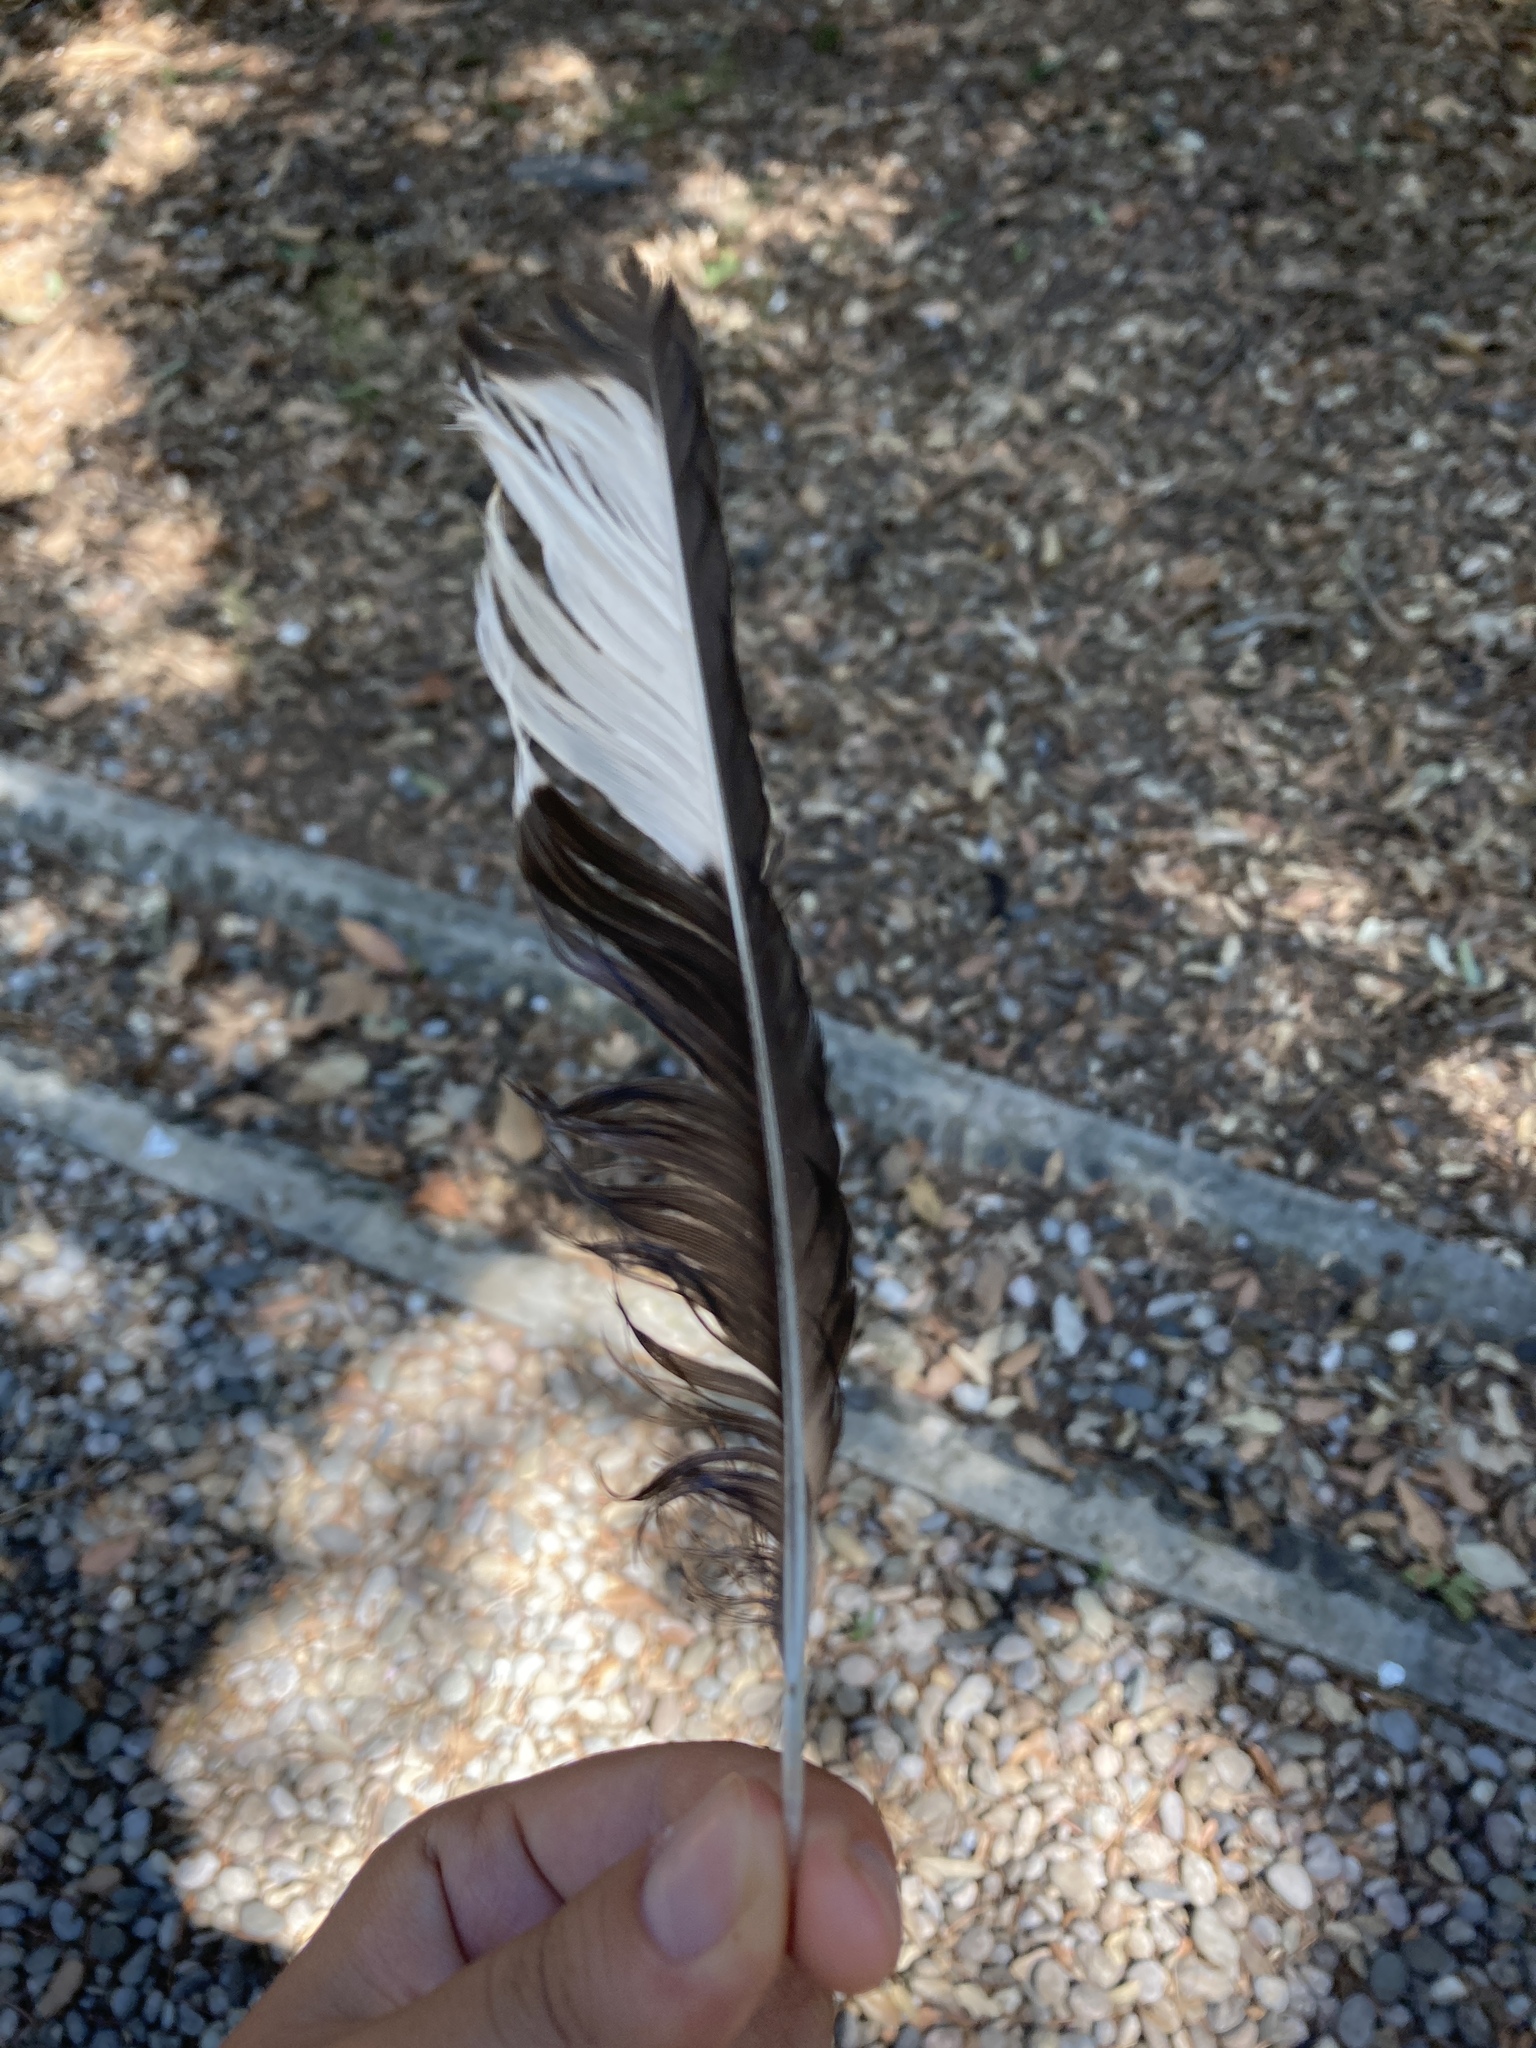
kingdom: Animalia
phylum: Chordata
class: Aves
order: Passeriformes
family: Corvidae
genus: Pica
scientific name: Pica pica
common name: Eurasian magpie
